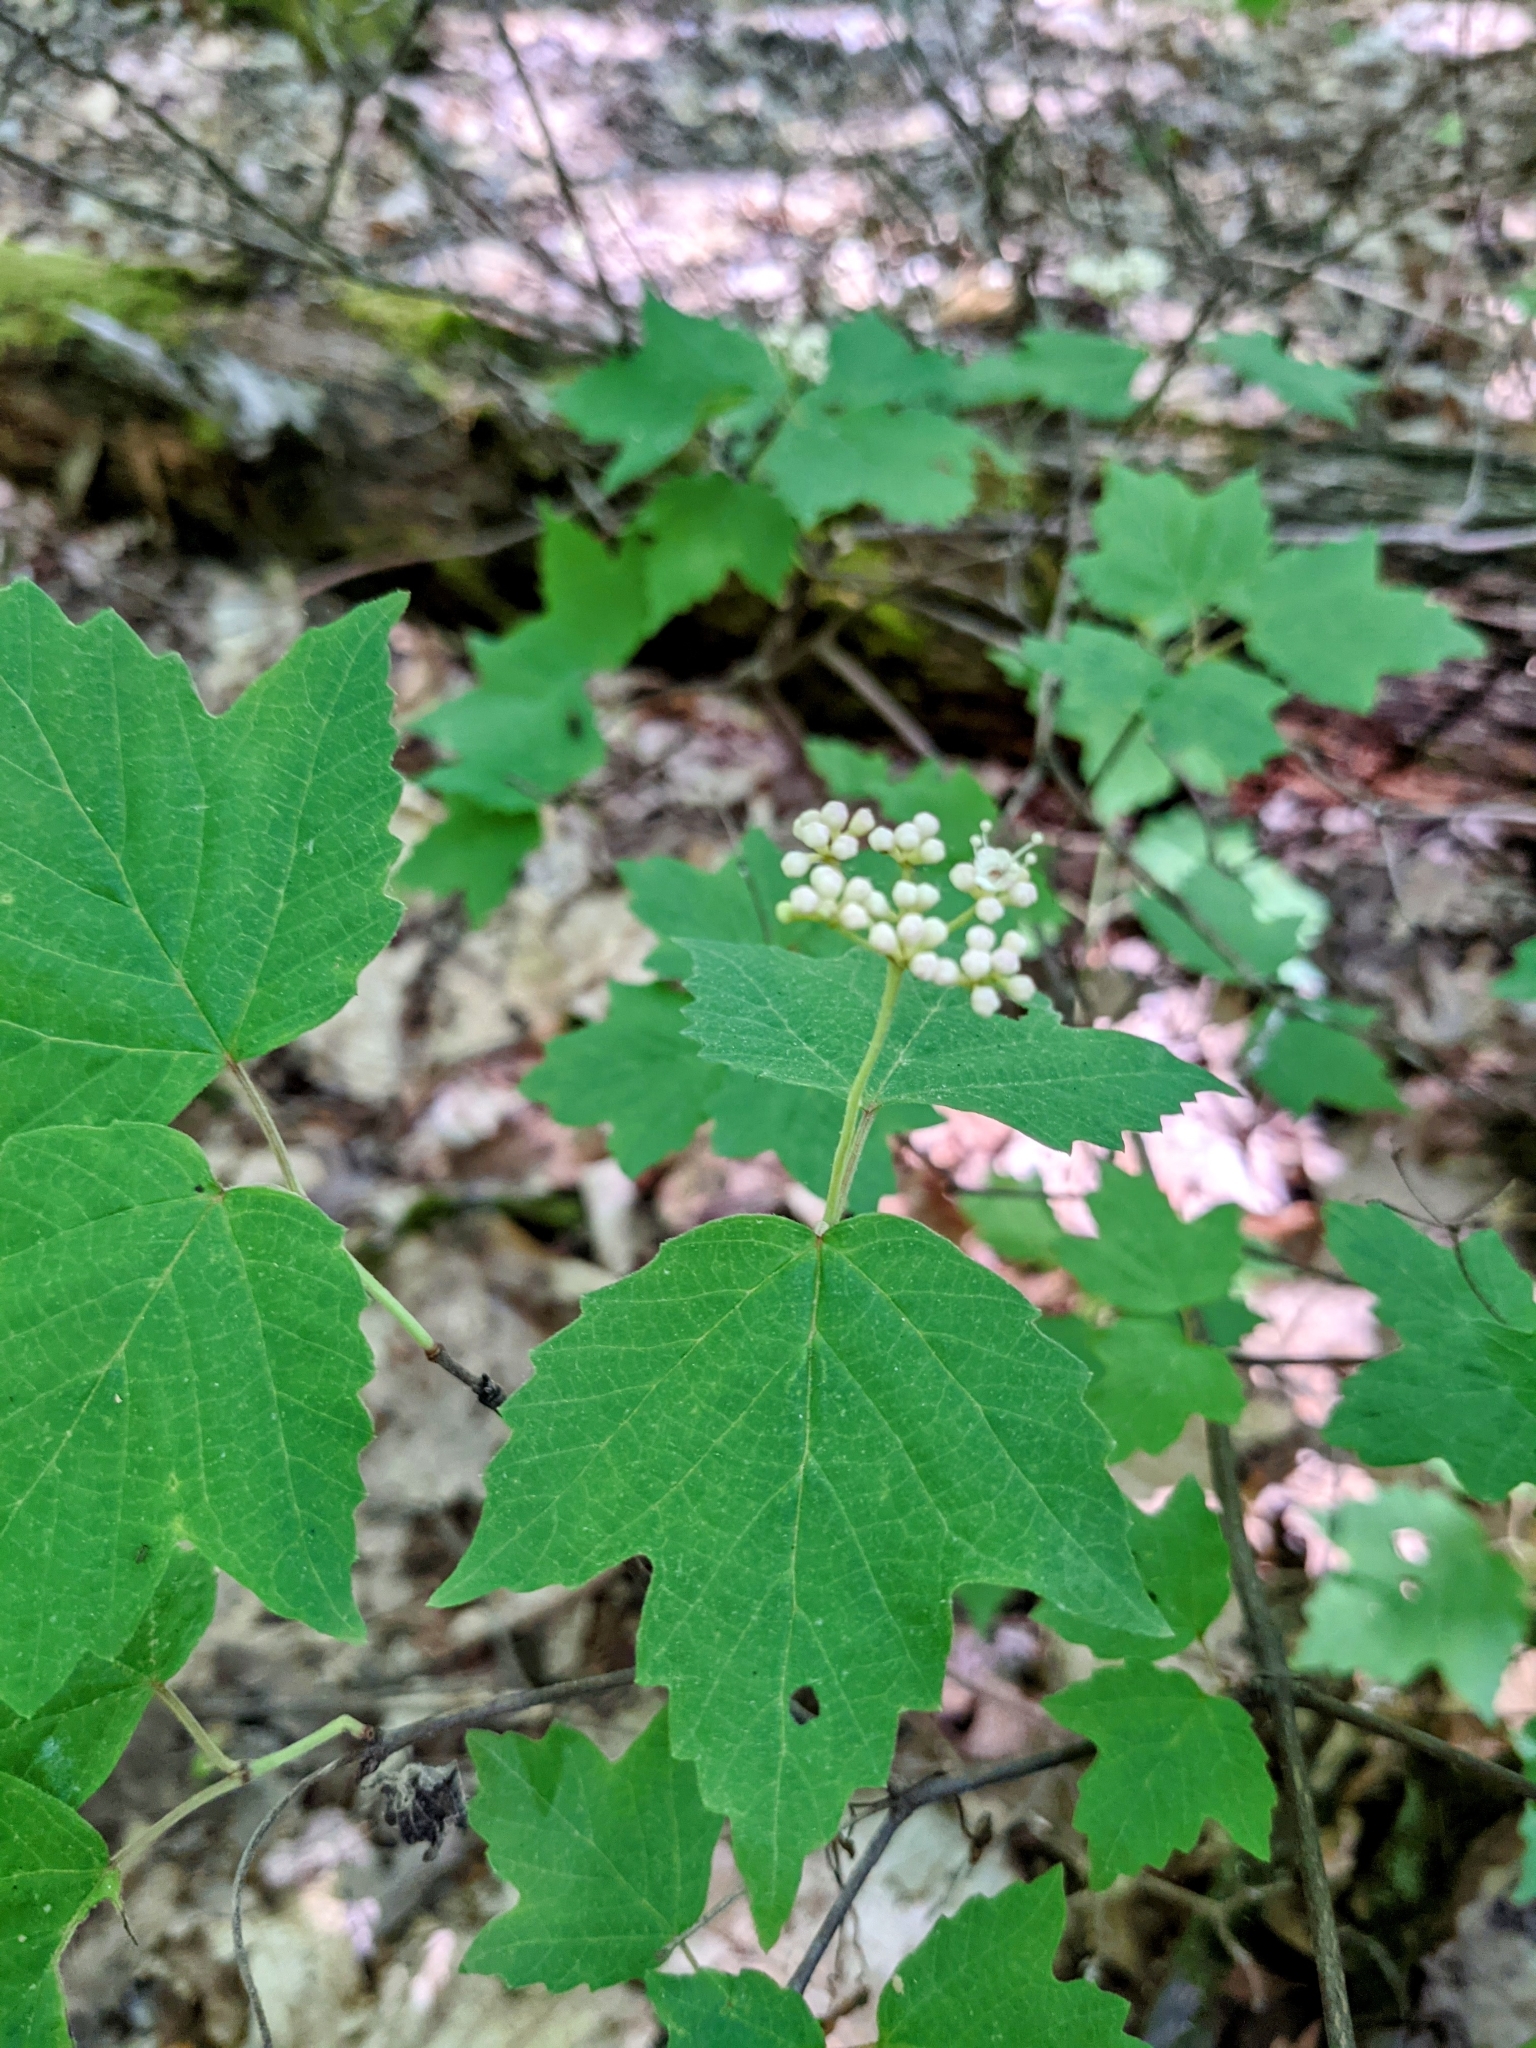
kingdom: Plantae
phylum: Tracheophyta
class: Magnoliopsida
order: Dipsacales
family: Viburnaceae
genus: Viburnum
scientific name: Viburnum acerifolium
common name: Dockmackie
